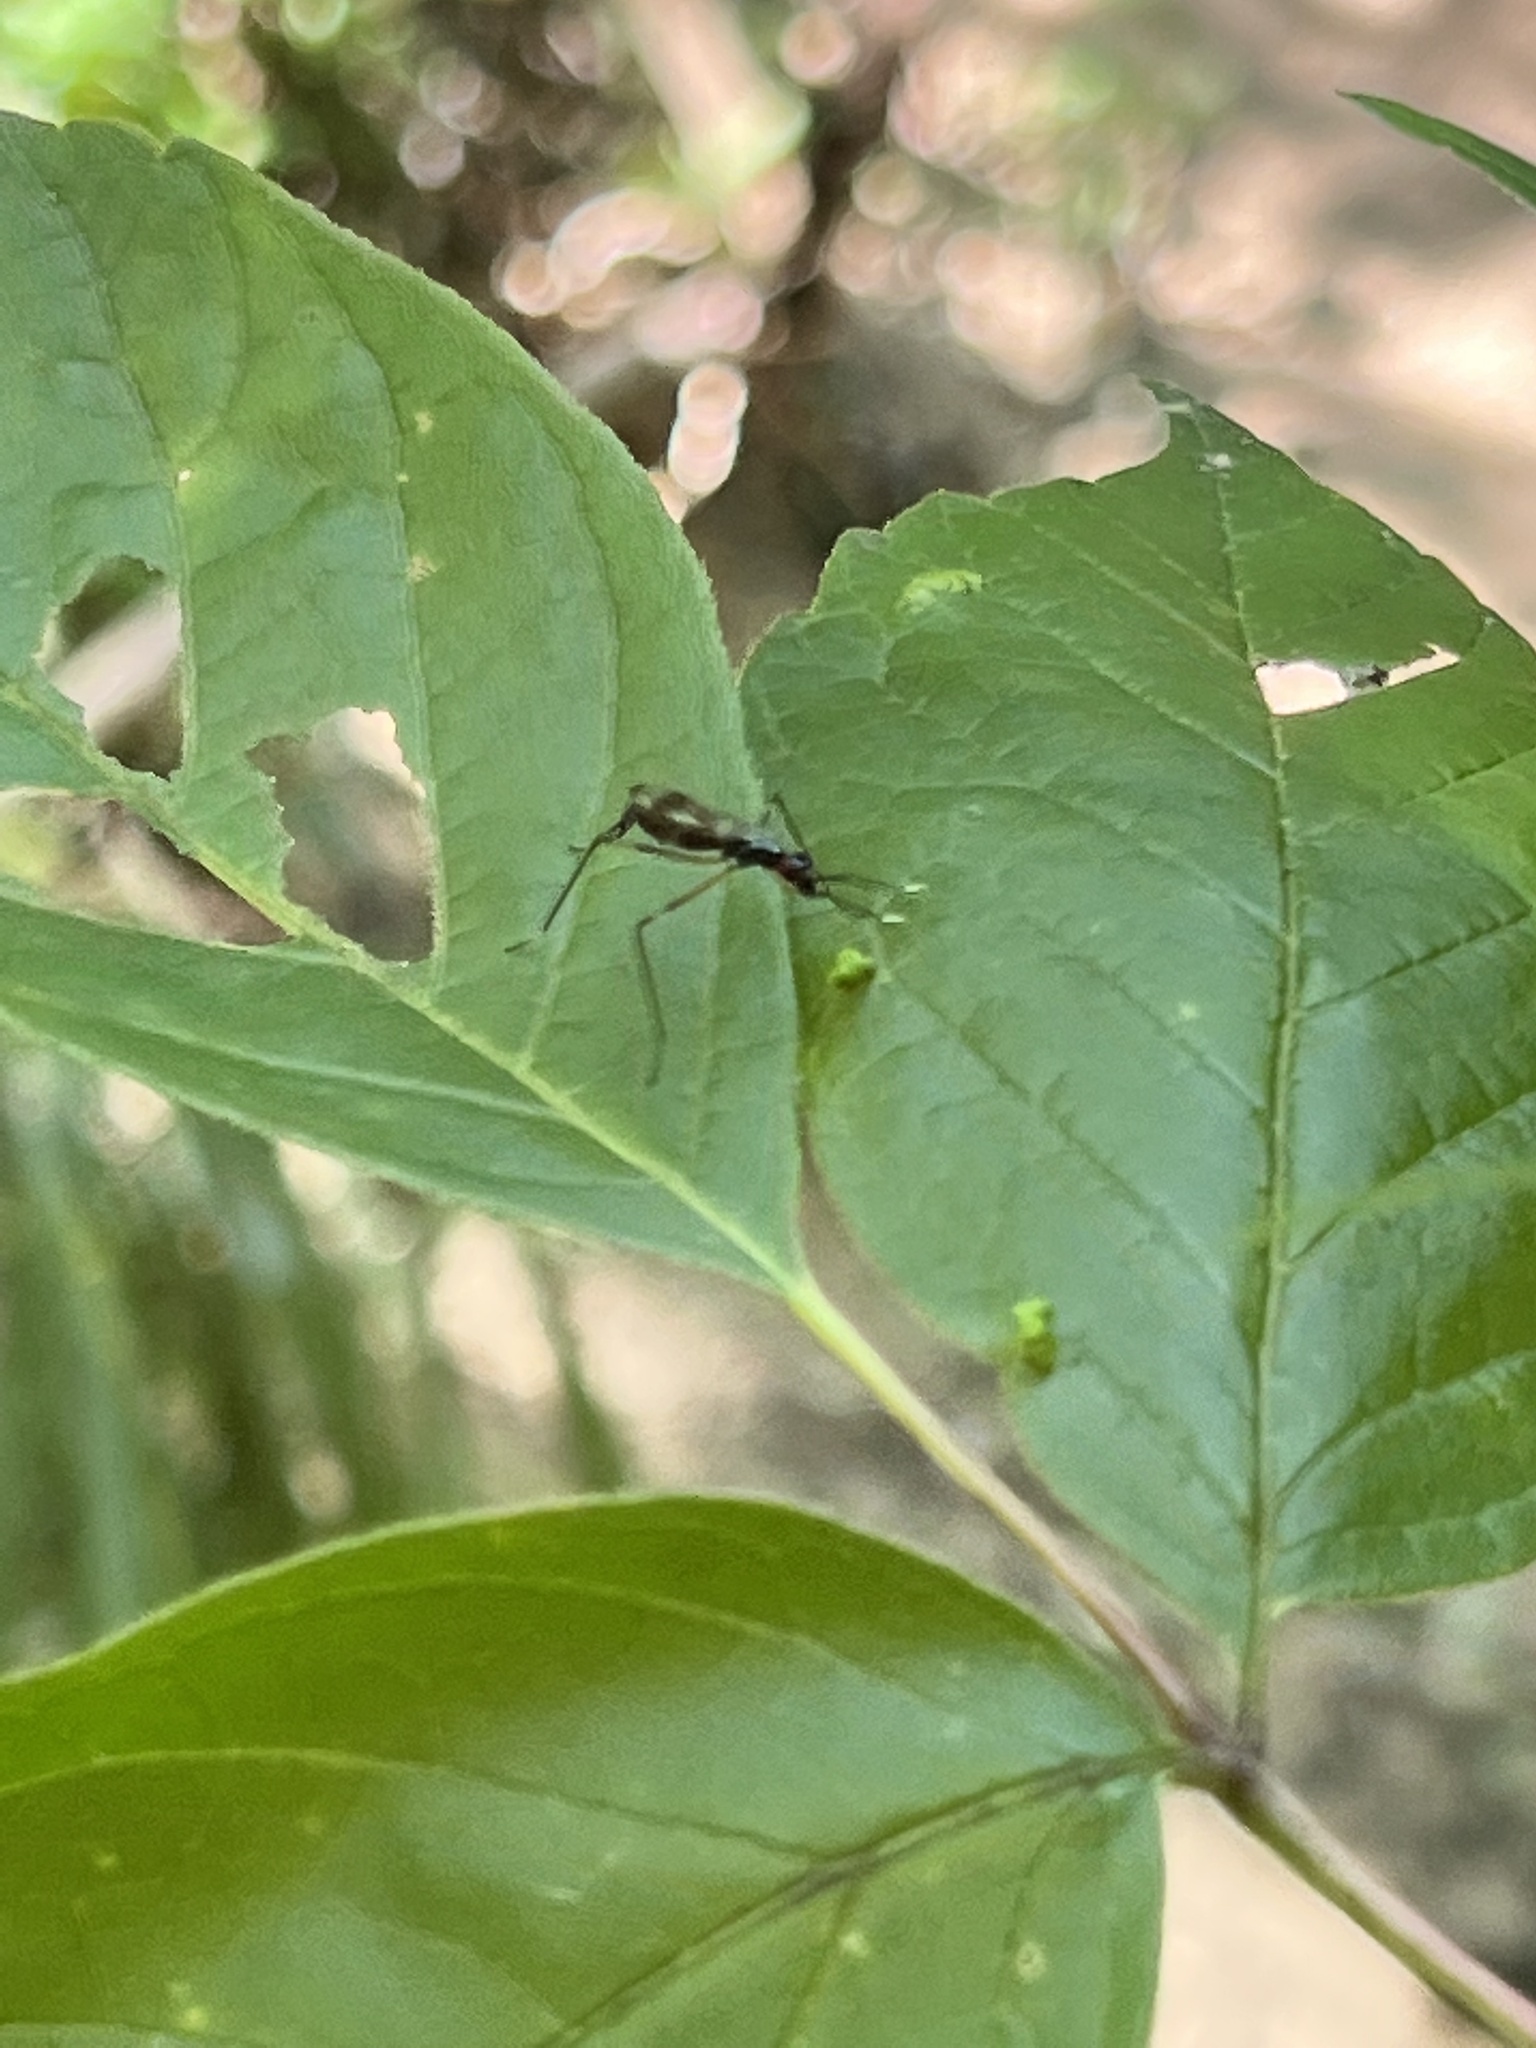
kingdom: Animalia
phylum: Arthropoda
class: Insecta
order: Diptera
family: Micropezidae
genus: Rainieria
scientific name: Rainieria antennaepes
